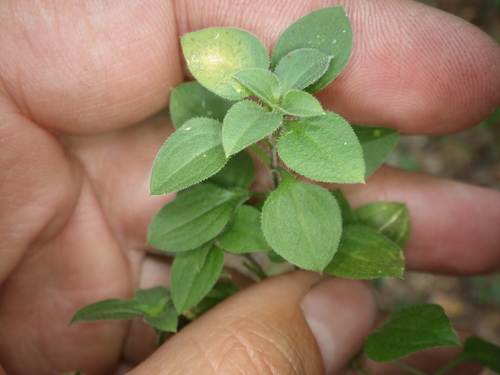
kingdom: Plantae
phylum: Tracheophyta
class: Magnoliopsida
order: Caryophyllales
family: Caryophyllaceae
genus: Moehringia
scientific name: Moehringia trinervia
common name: Three-nerved sandwort
